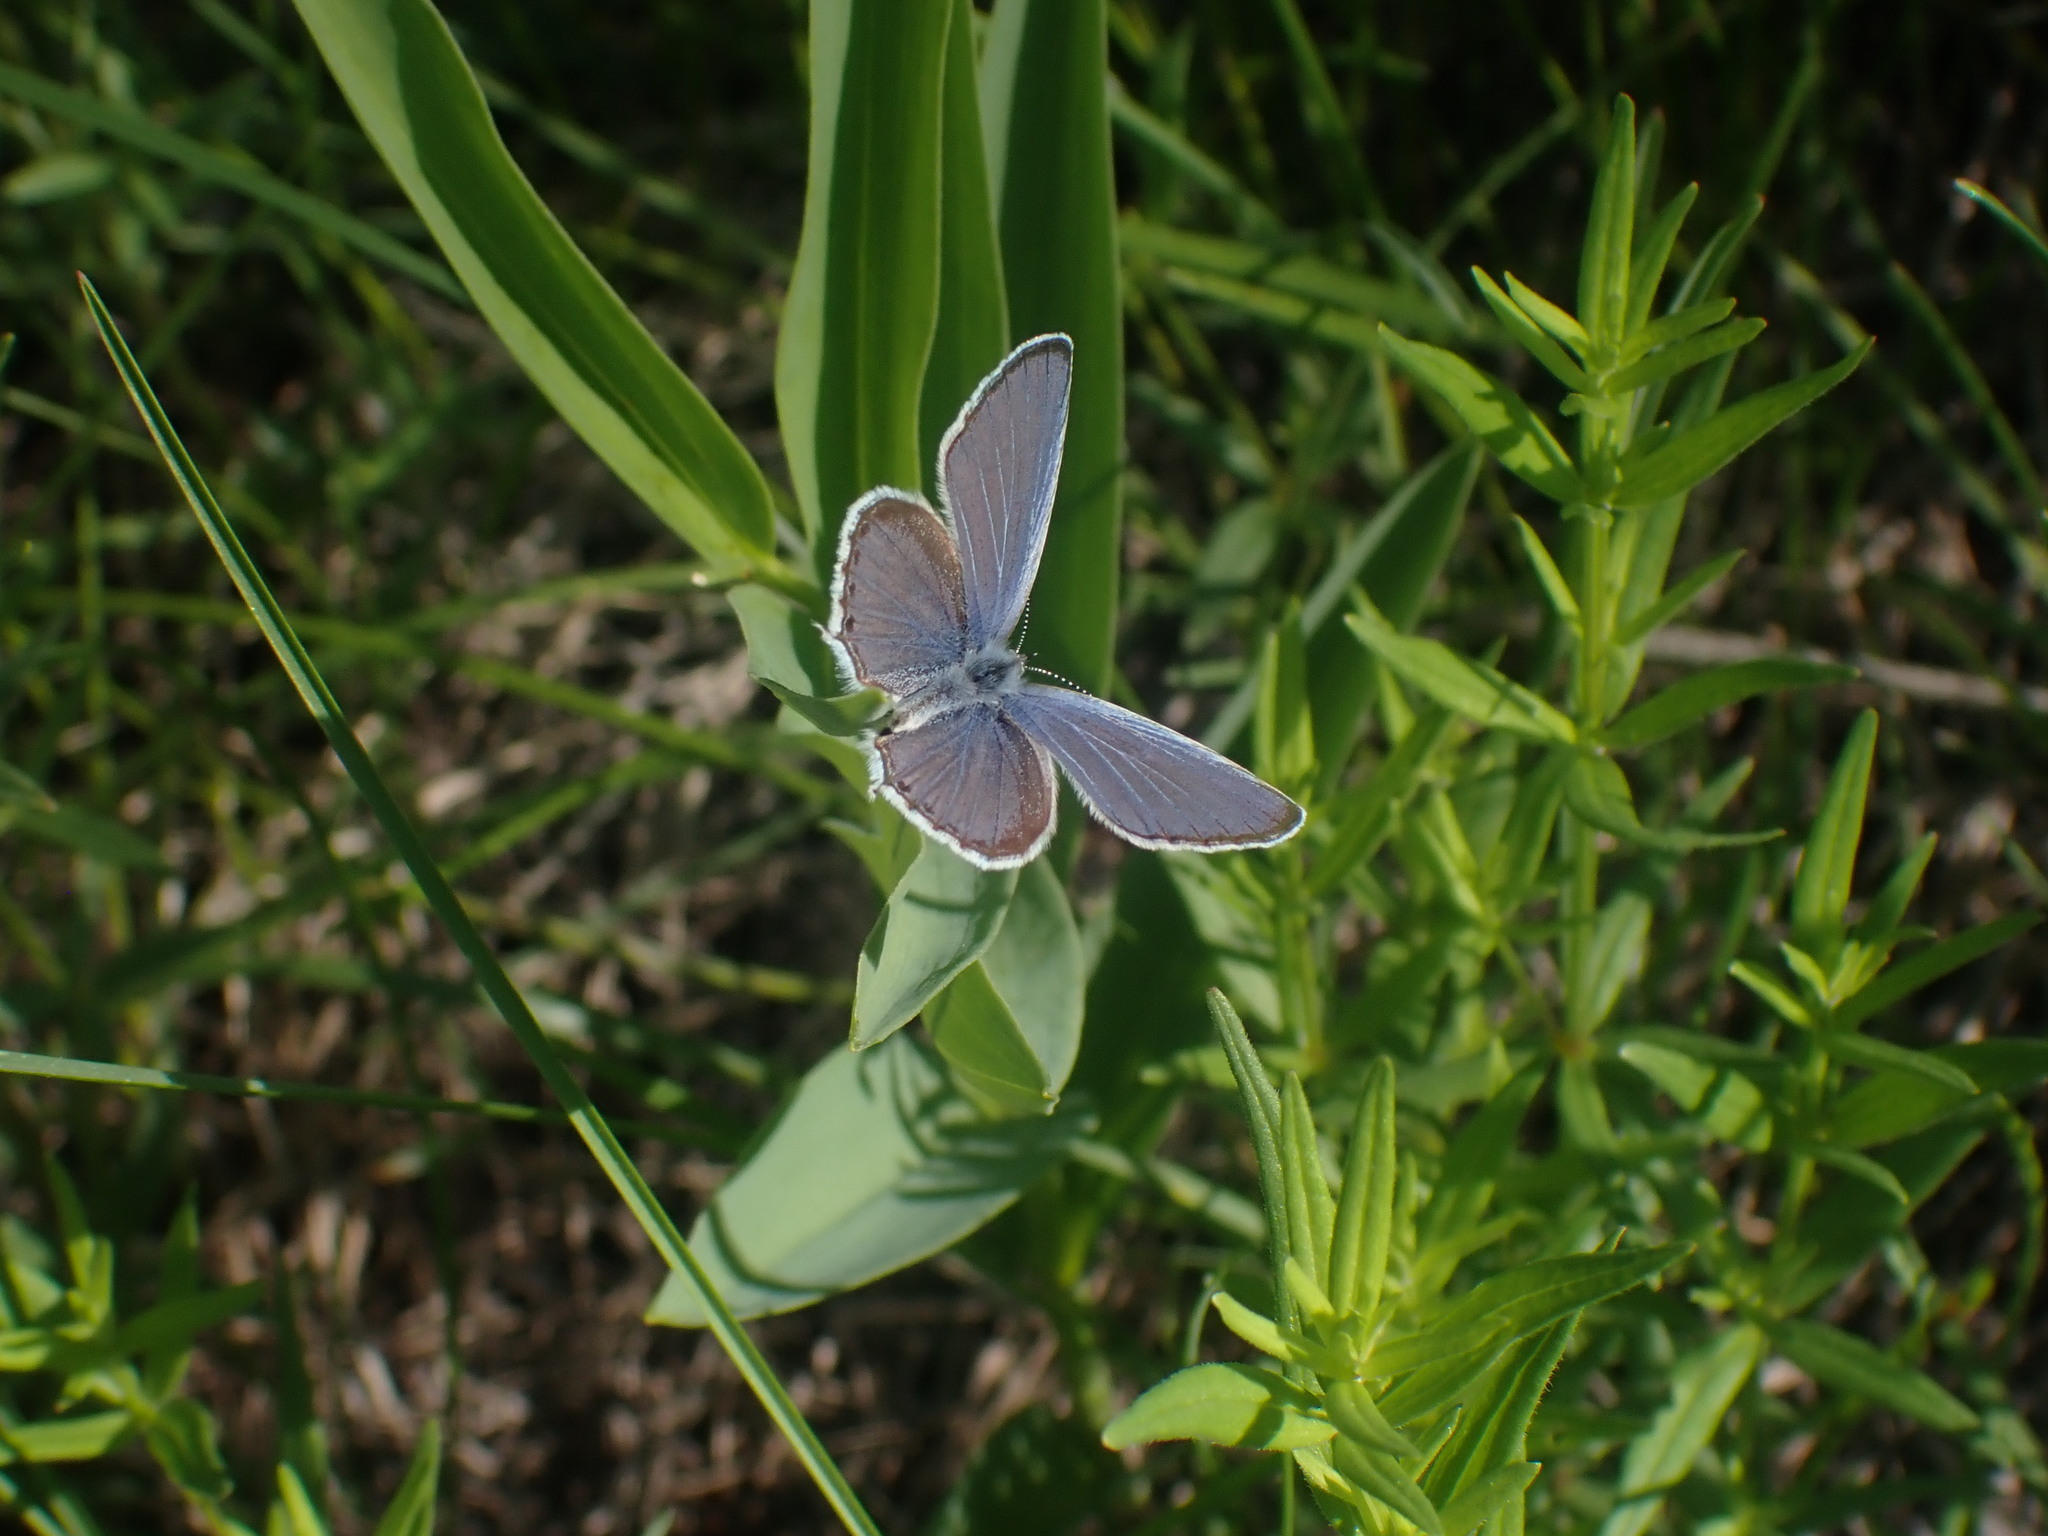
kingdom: Animalia
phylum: Arthropoda
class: Insecta
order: Lepidoptera
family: Lycaenidae
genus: Elkalyce
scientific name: Elkalyce amyntula
